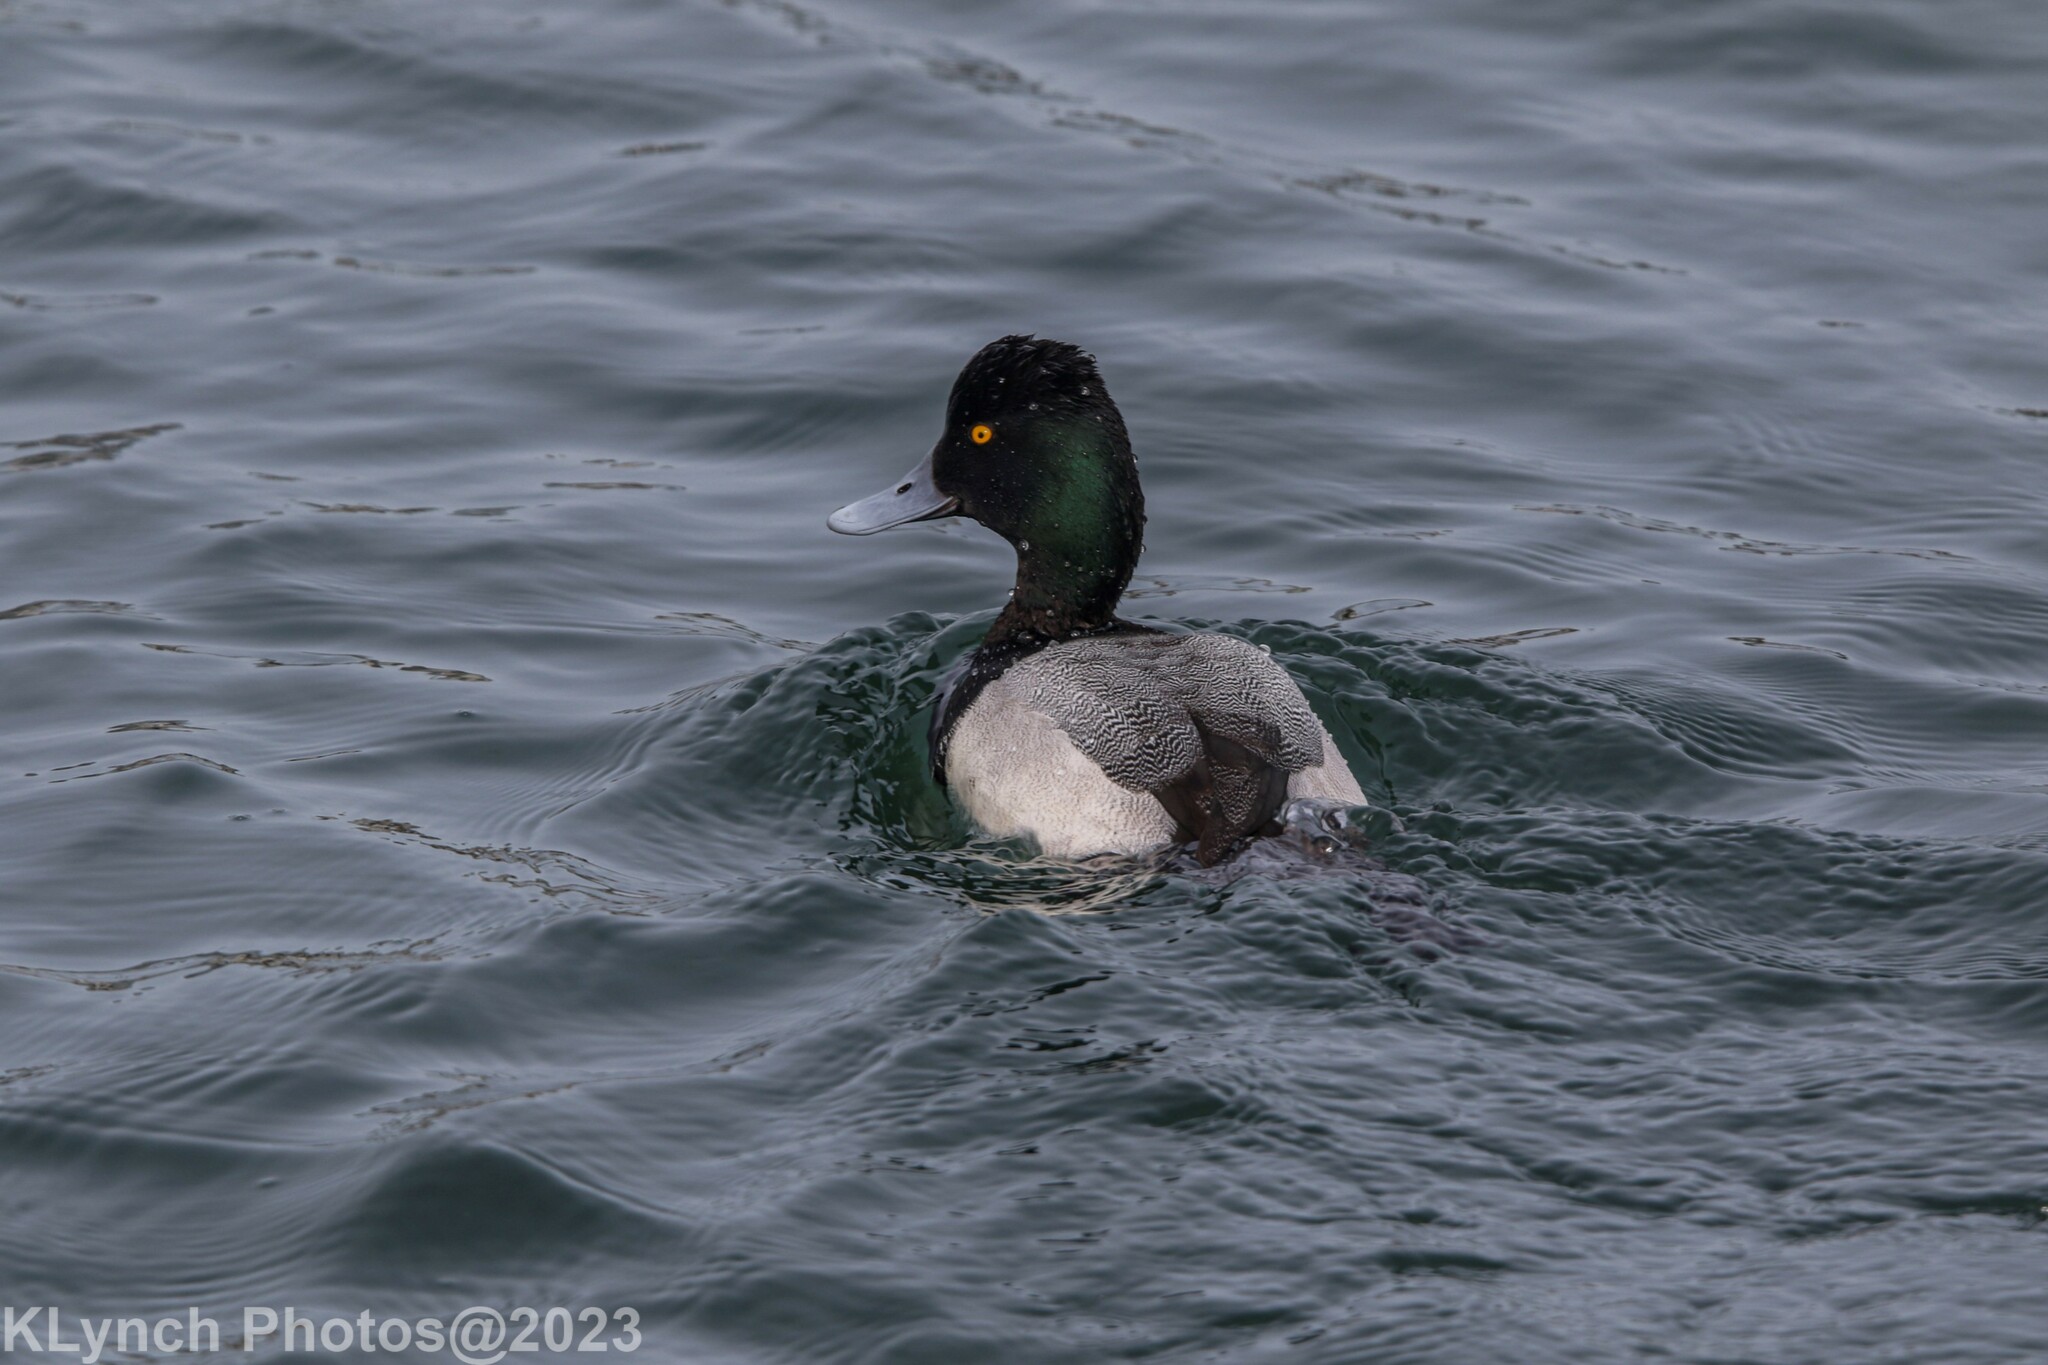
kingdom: Animalia
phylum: Chordata
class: Aves
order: Anseriformes
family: Anatidae
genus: Aythya
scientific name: Aythya marila
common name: Greater scaup
